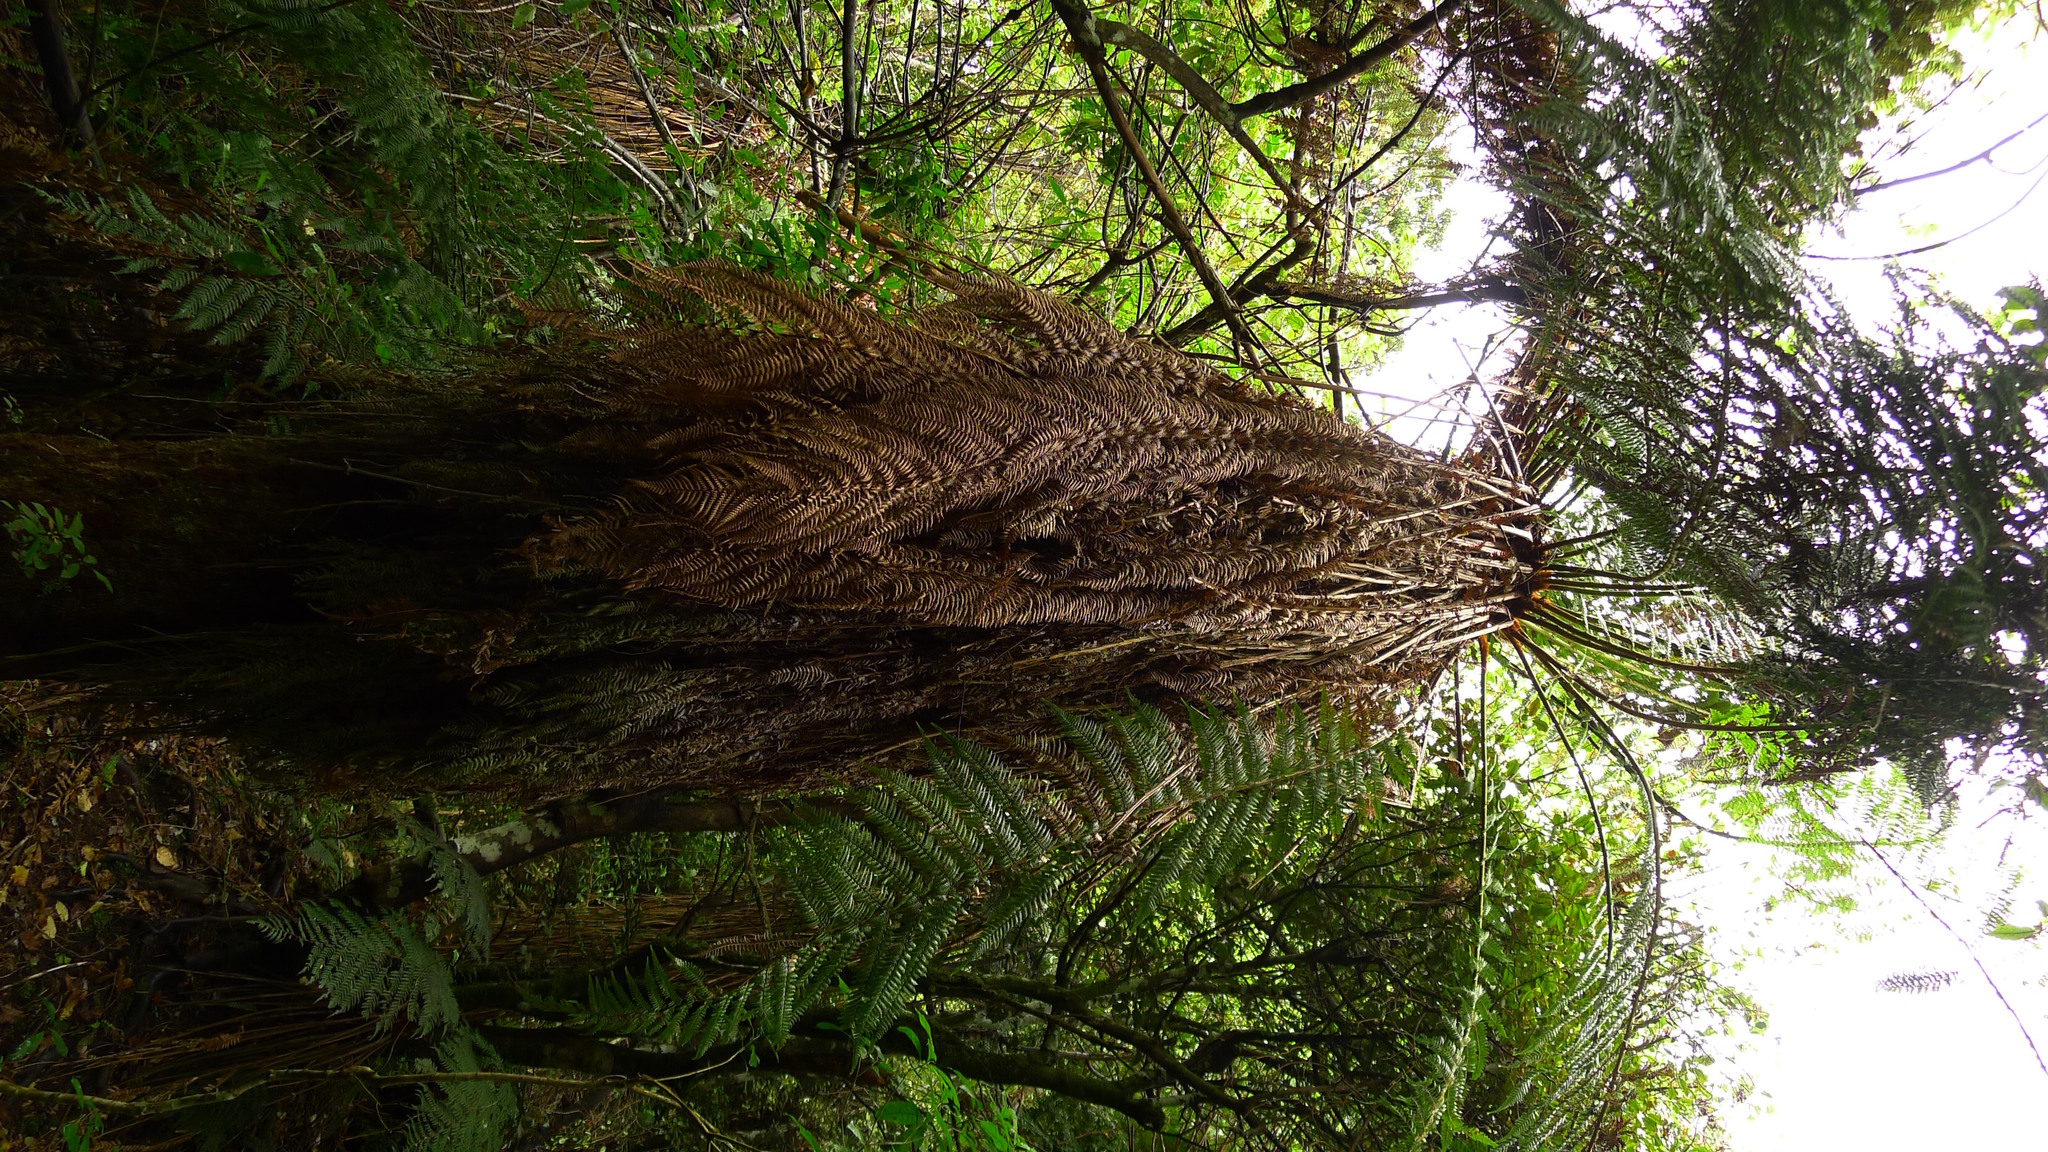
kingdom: Plantae
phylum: Tracheophyta
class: Polypodiopsida
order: Cyatheales
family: Dicksoniaceae
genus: Dicksonia
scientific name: Dicksonia fibrosa
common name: Golden tree fern
